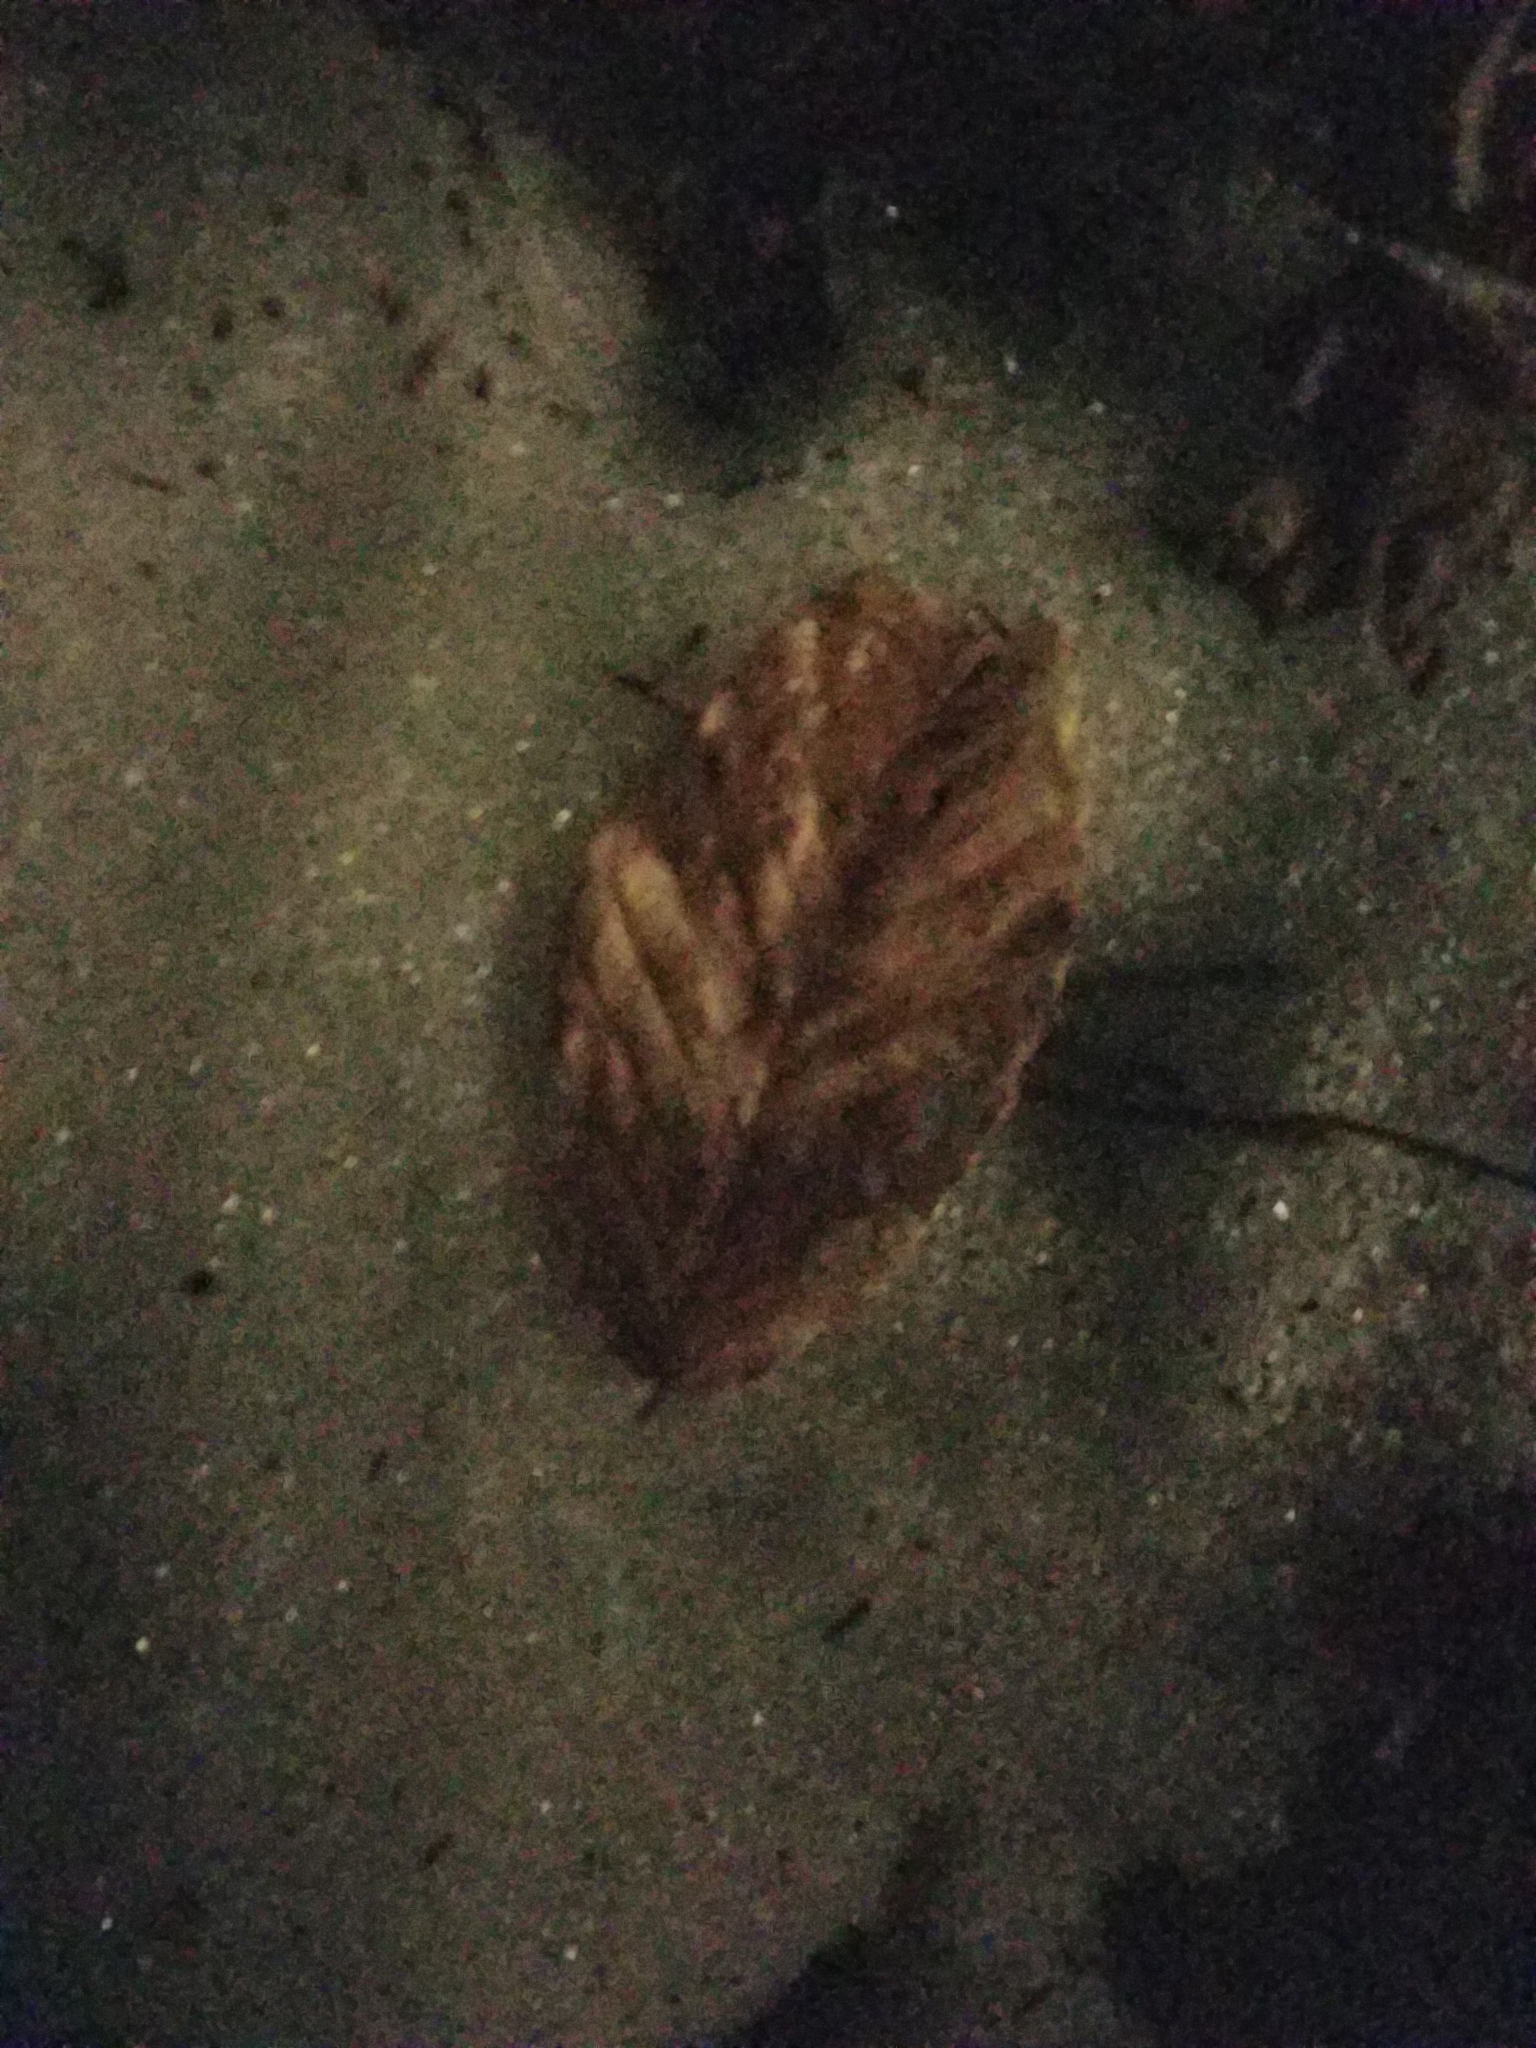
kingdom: Plantae
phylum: Tracheophyta
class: Magnoliopsida
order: Fagales
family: Fagaceae
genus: Fagus
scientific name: Fagus grandifolia
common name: American beech
